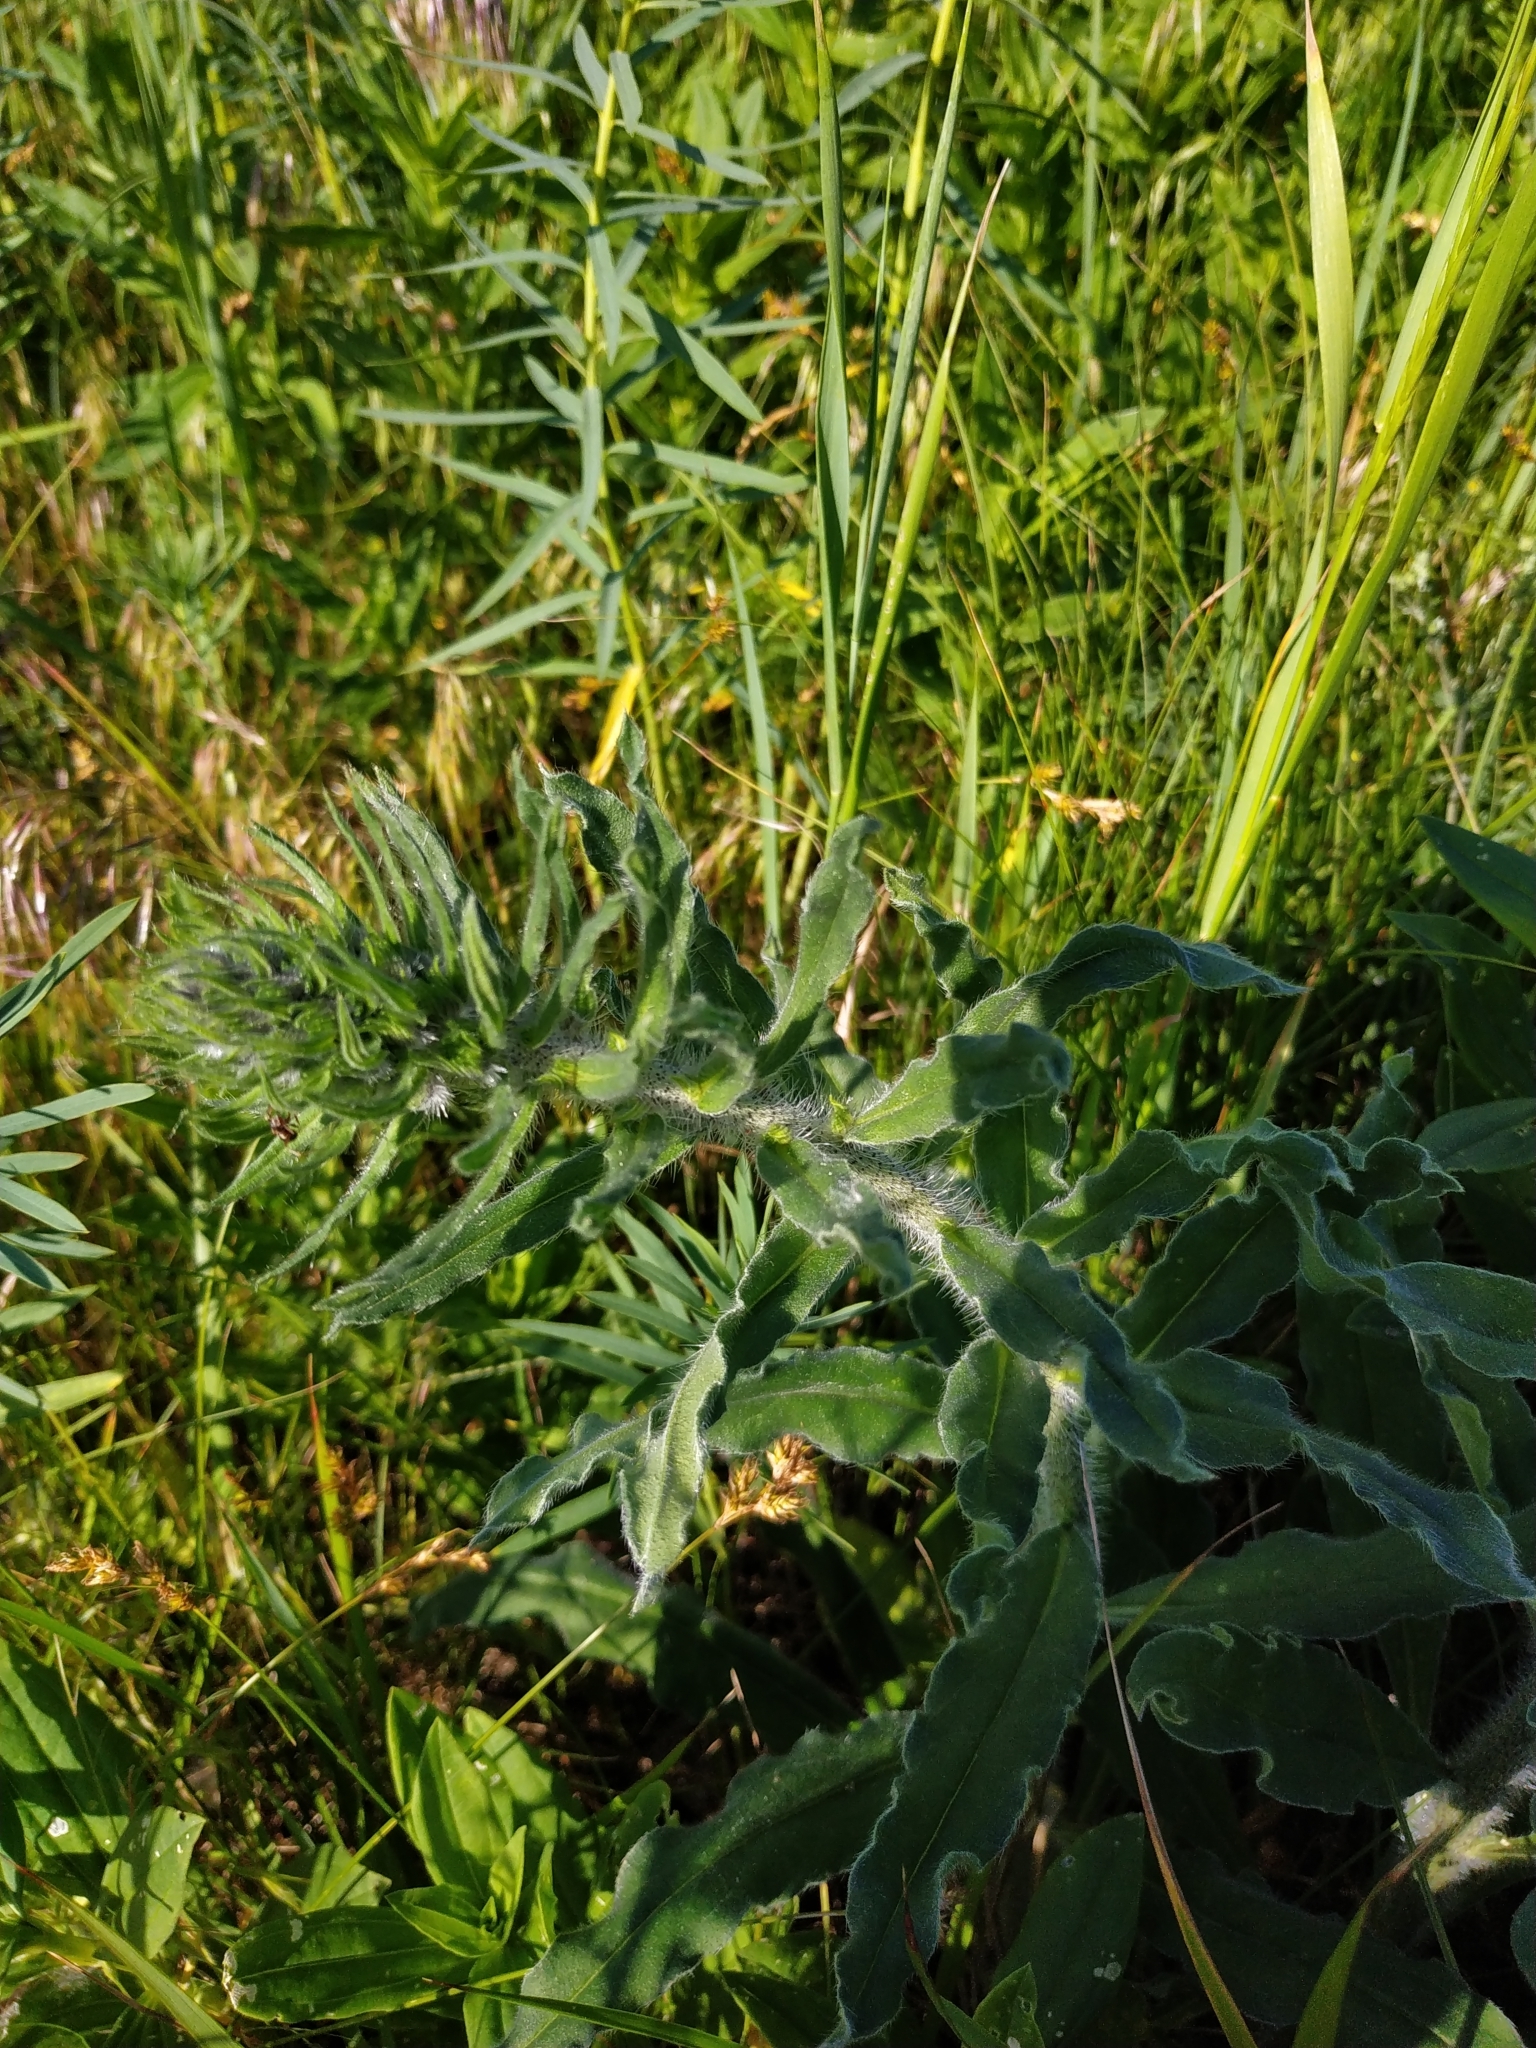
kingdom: Plantae
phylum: Tracheophyta
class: Magnoliopsida
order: Boraginales
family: Boraginaceae
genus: Echium
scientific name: Echium vulgare
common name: Common viper's bugloss
